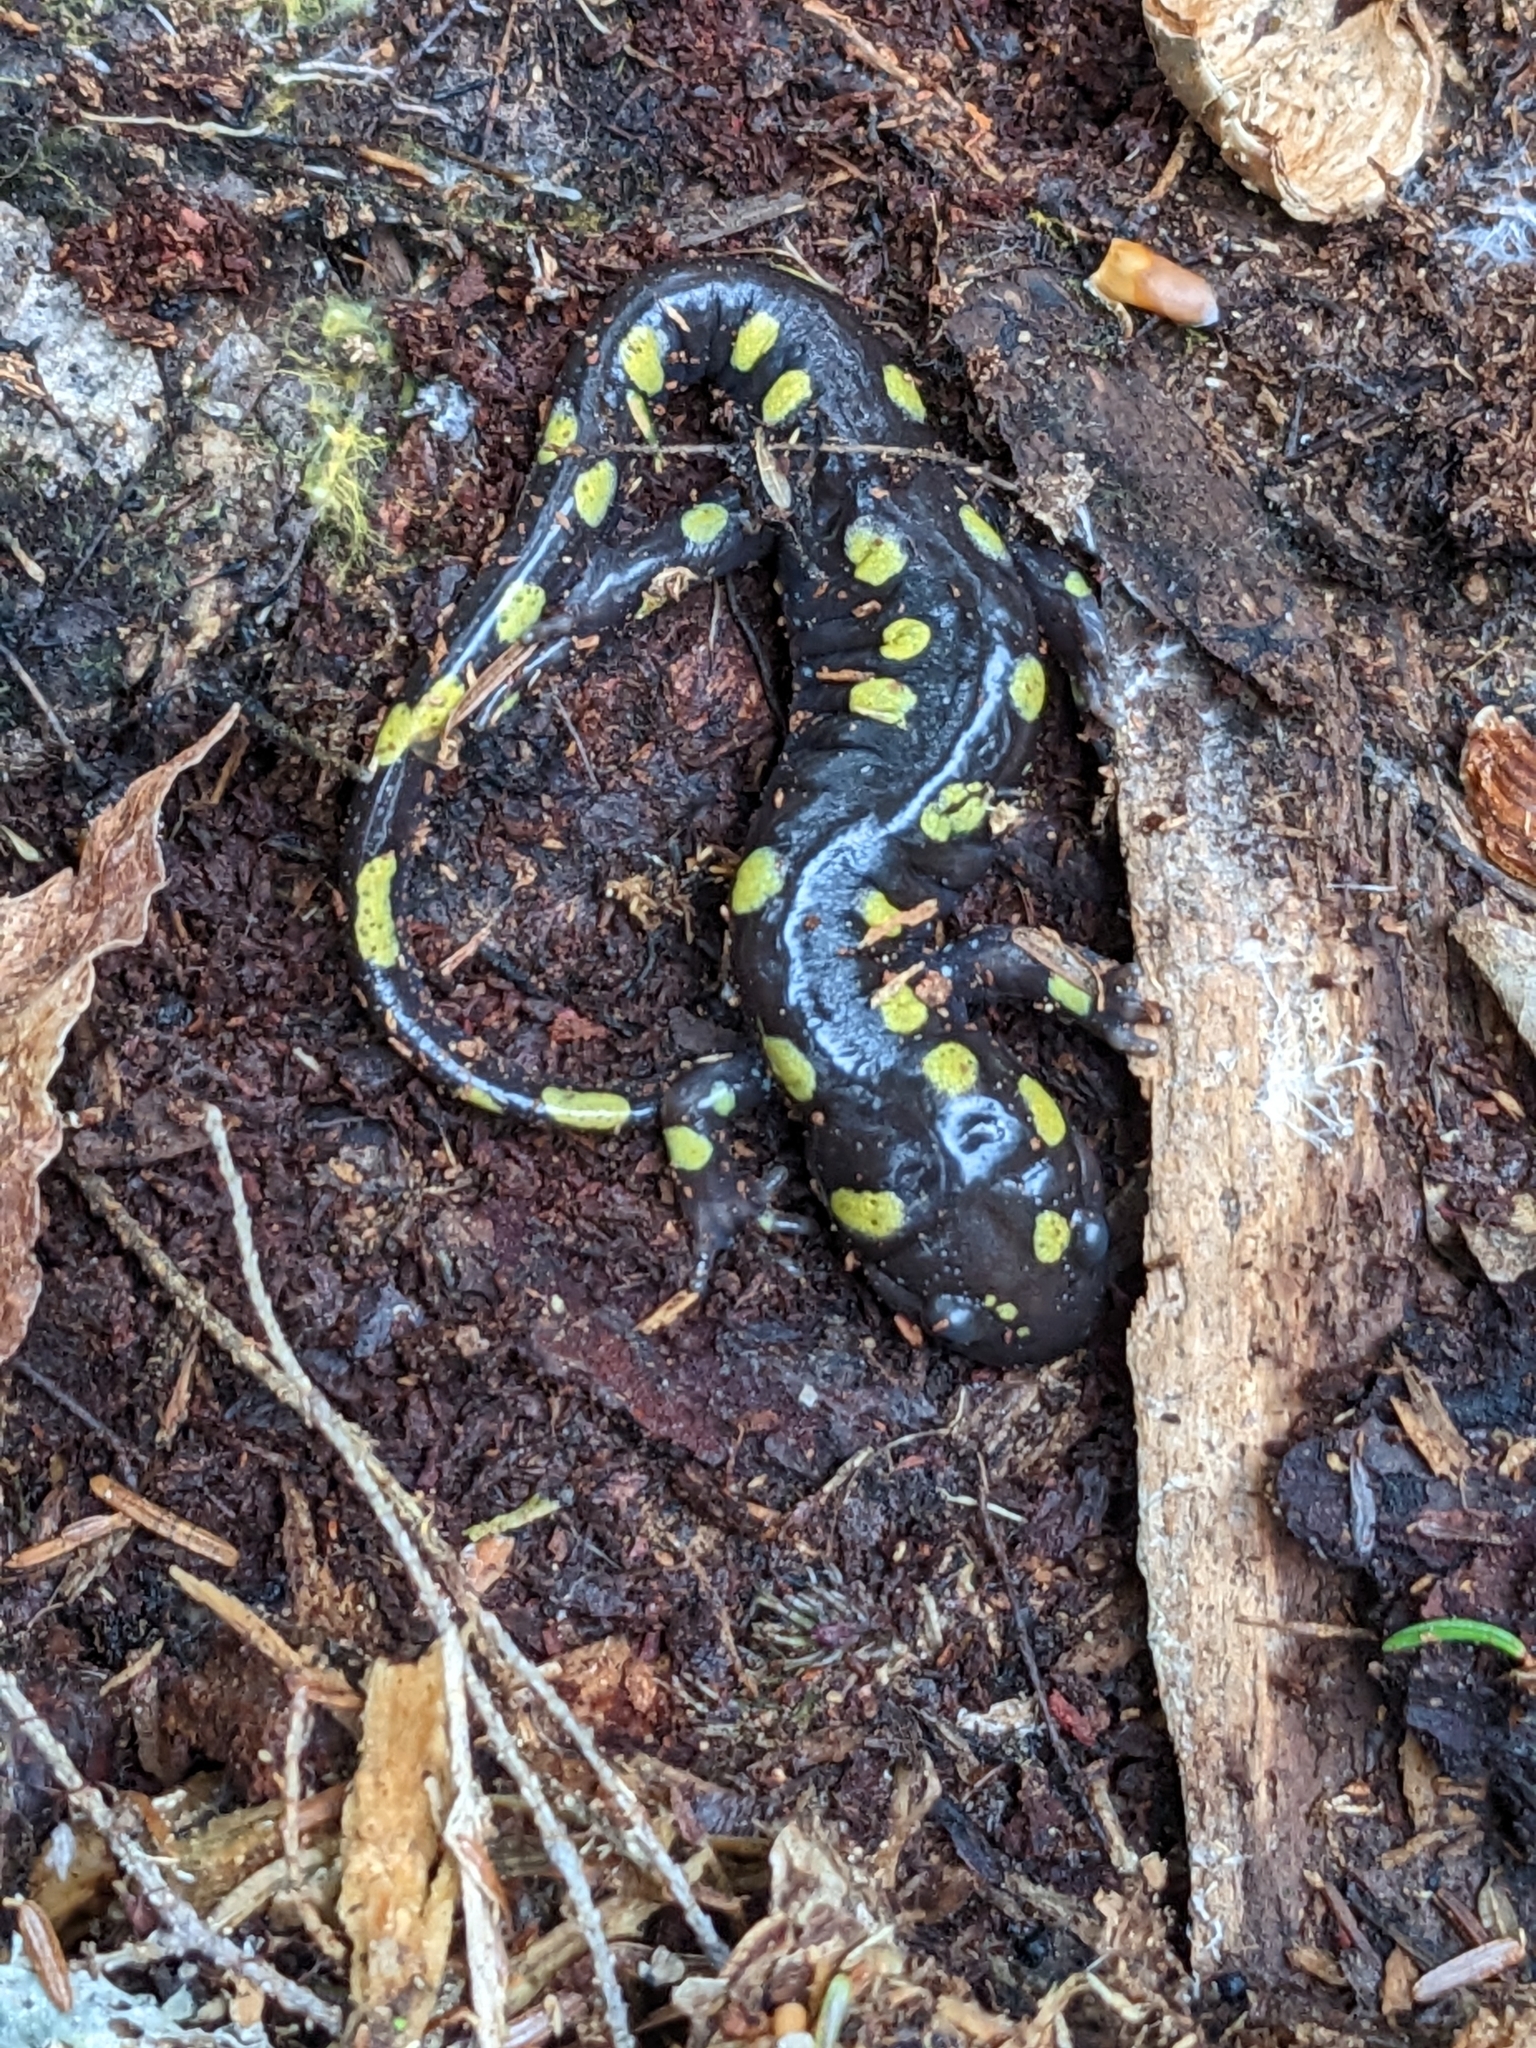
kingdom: Animalia
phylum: Chordata
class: Amphibia
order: Caudata
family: Ambystomatidae
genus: Ambystoma
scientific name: Ambystoma maculatum
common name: Spotted salamander
